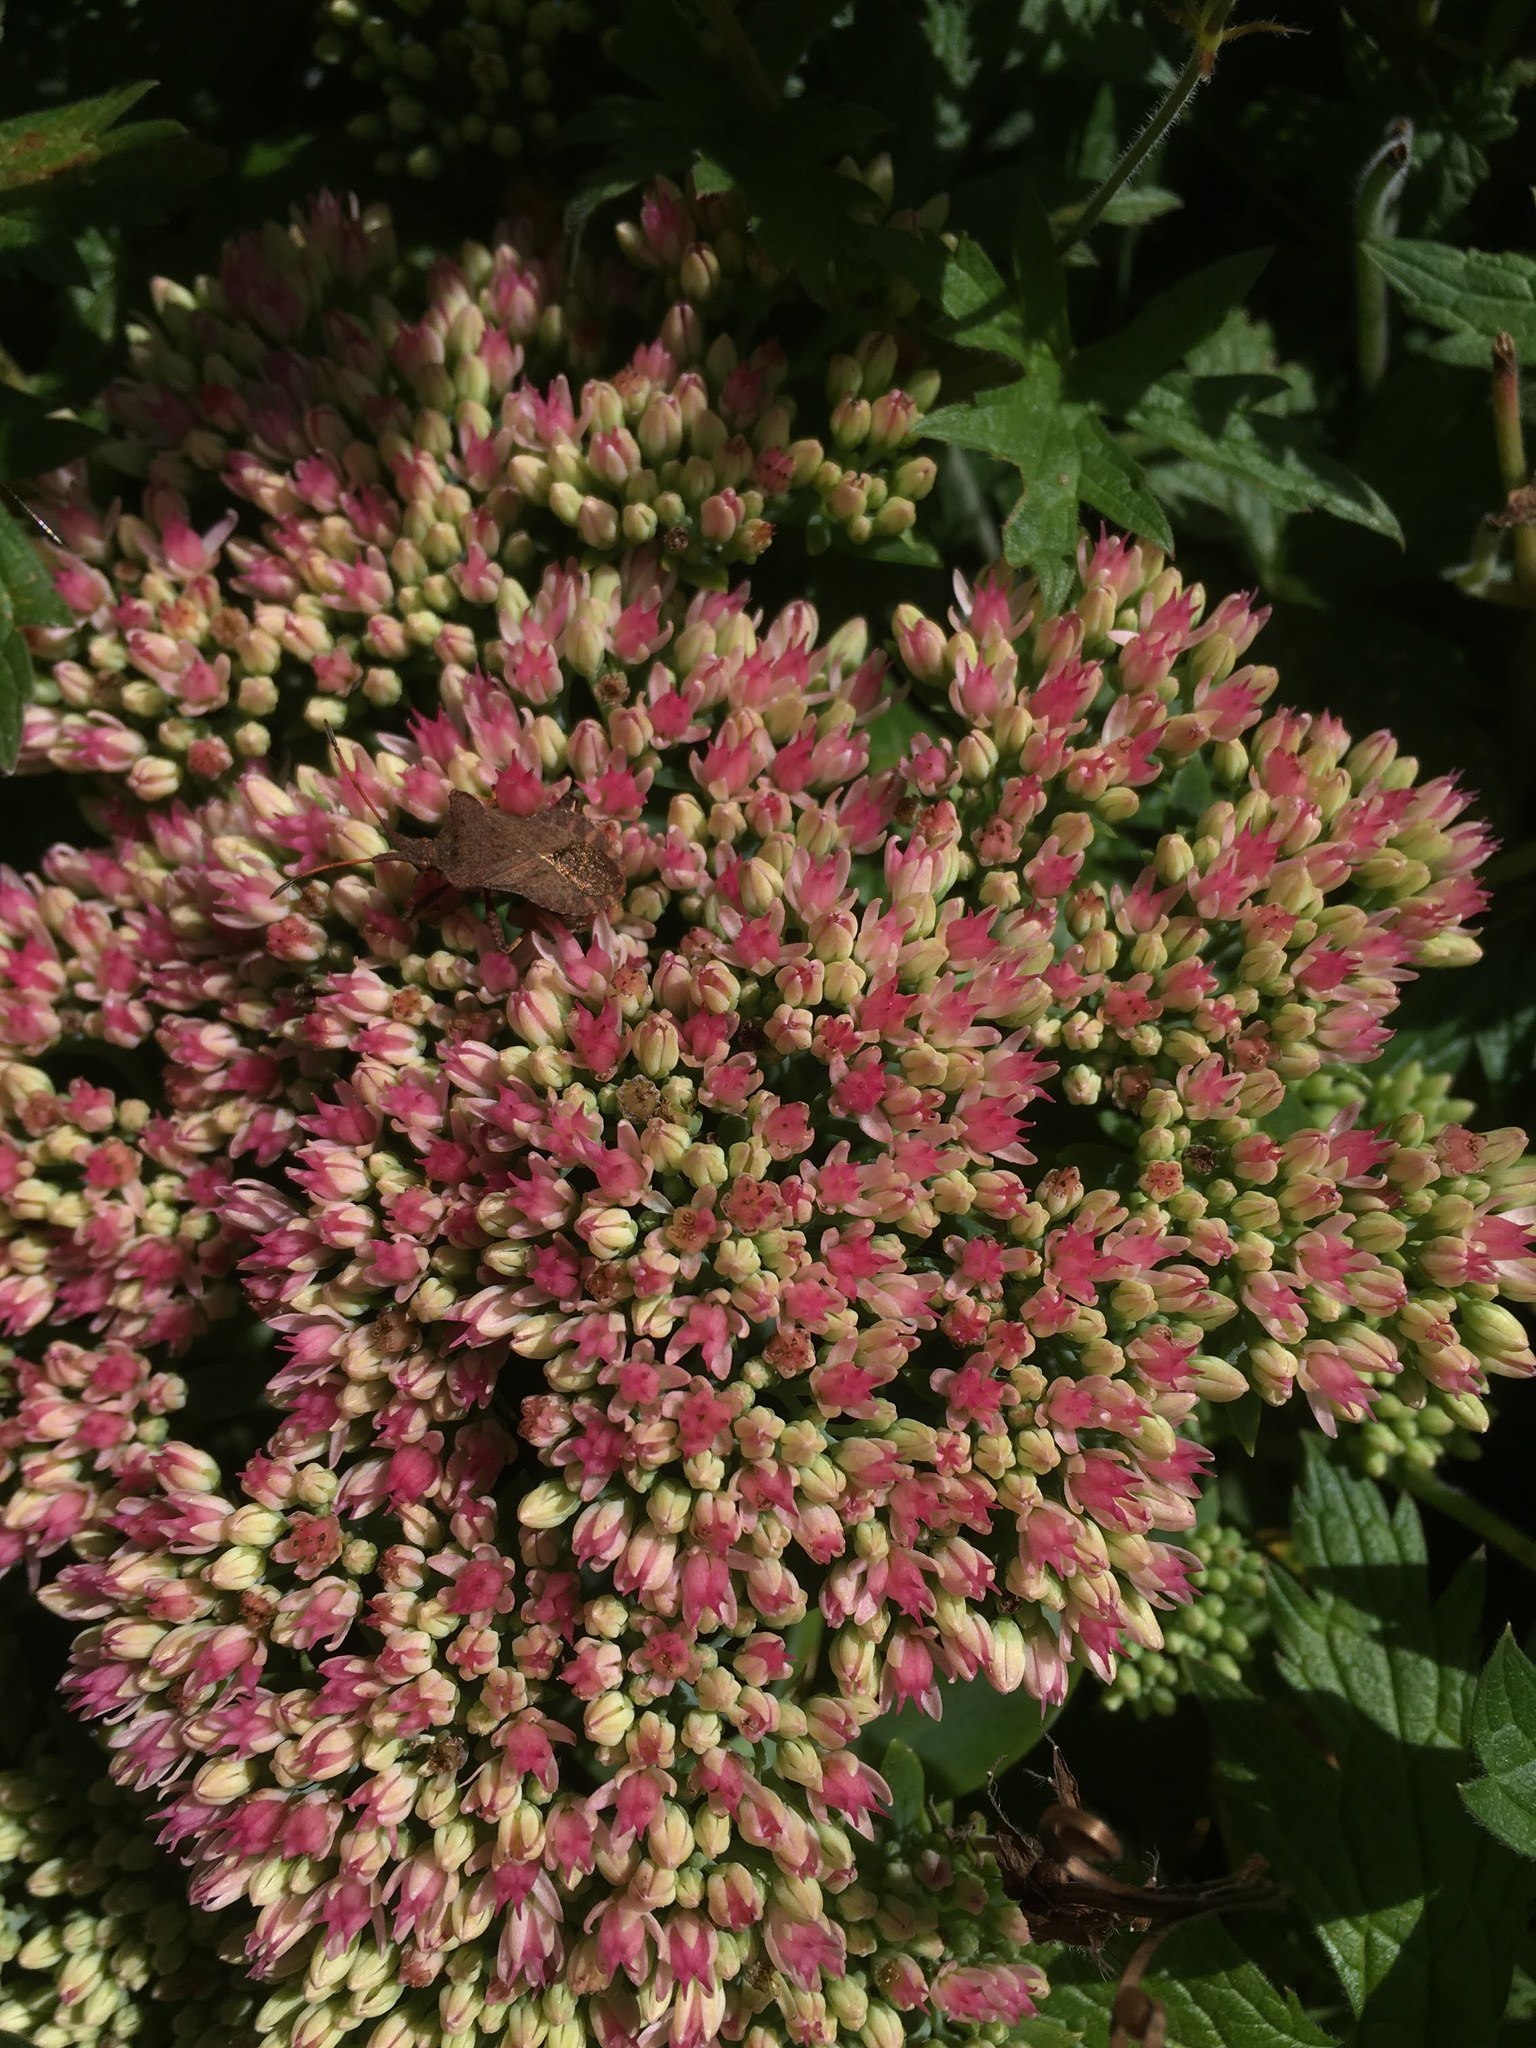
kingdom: Animalia
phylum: Arthropoda
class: Insecta
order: Hemiptera
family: Coreidae
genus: Coreus
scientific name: Coreus marginatus
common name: Dock bug
